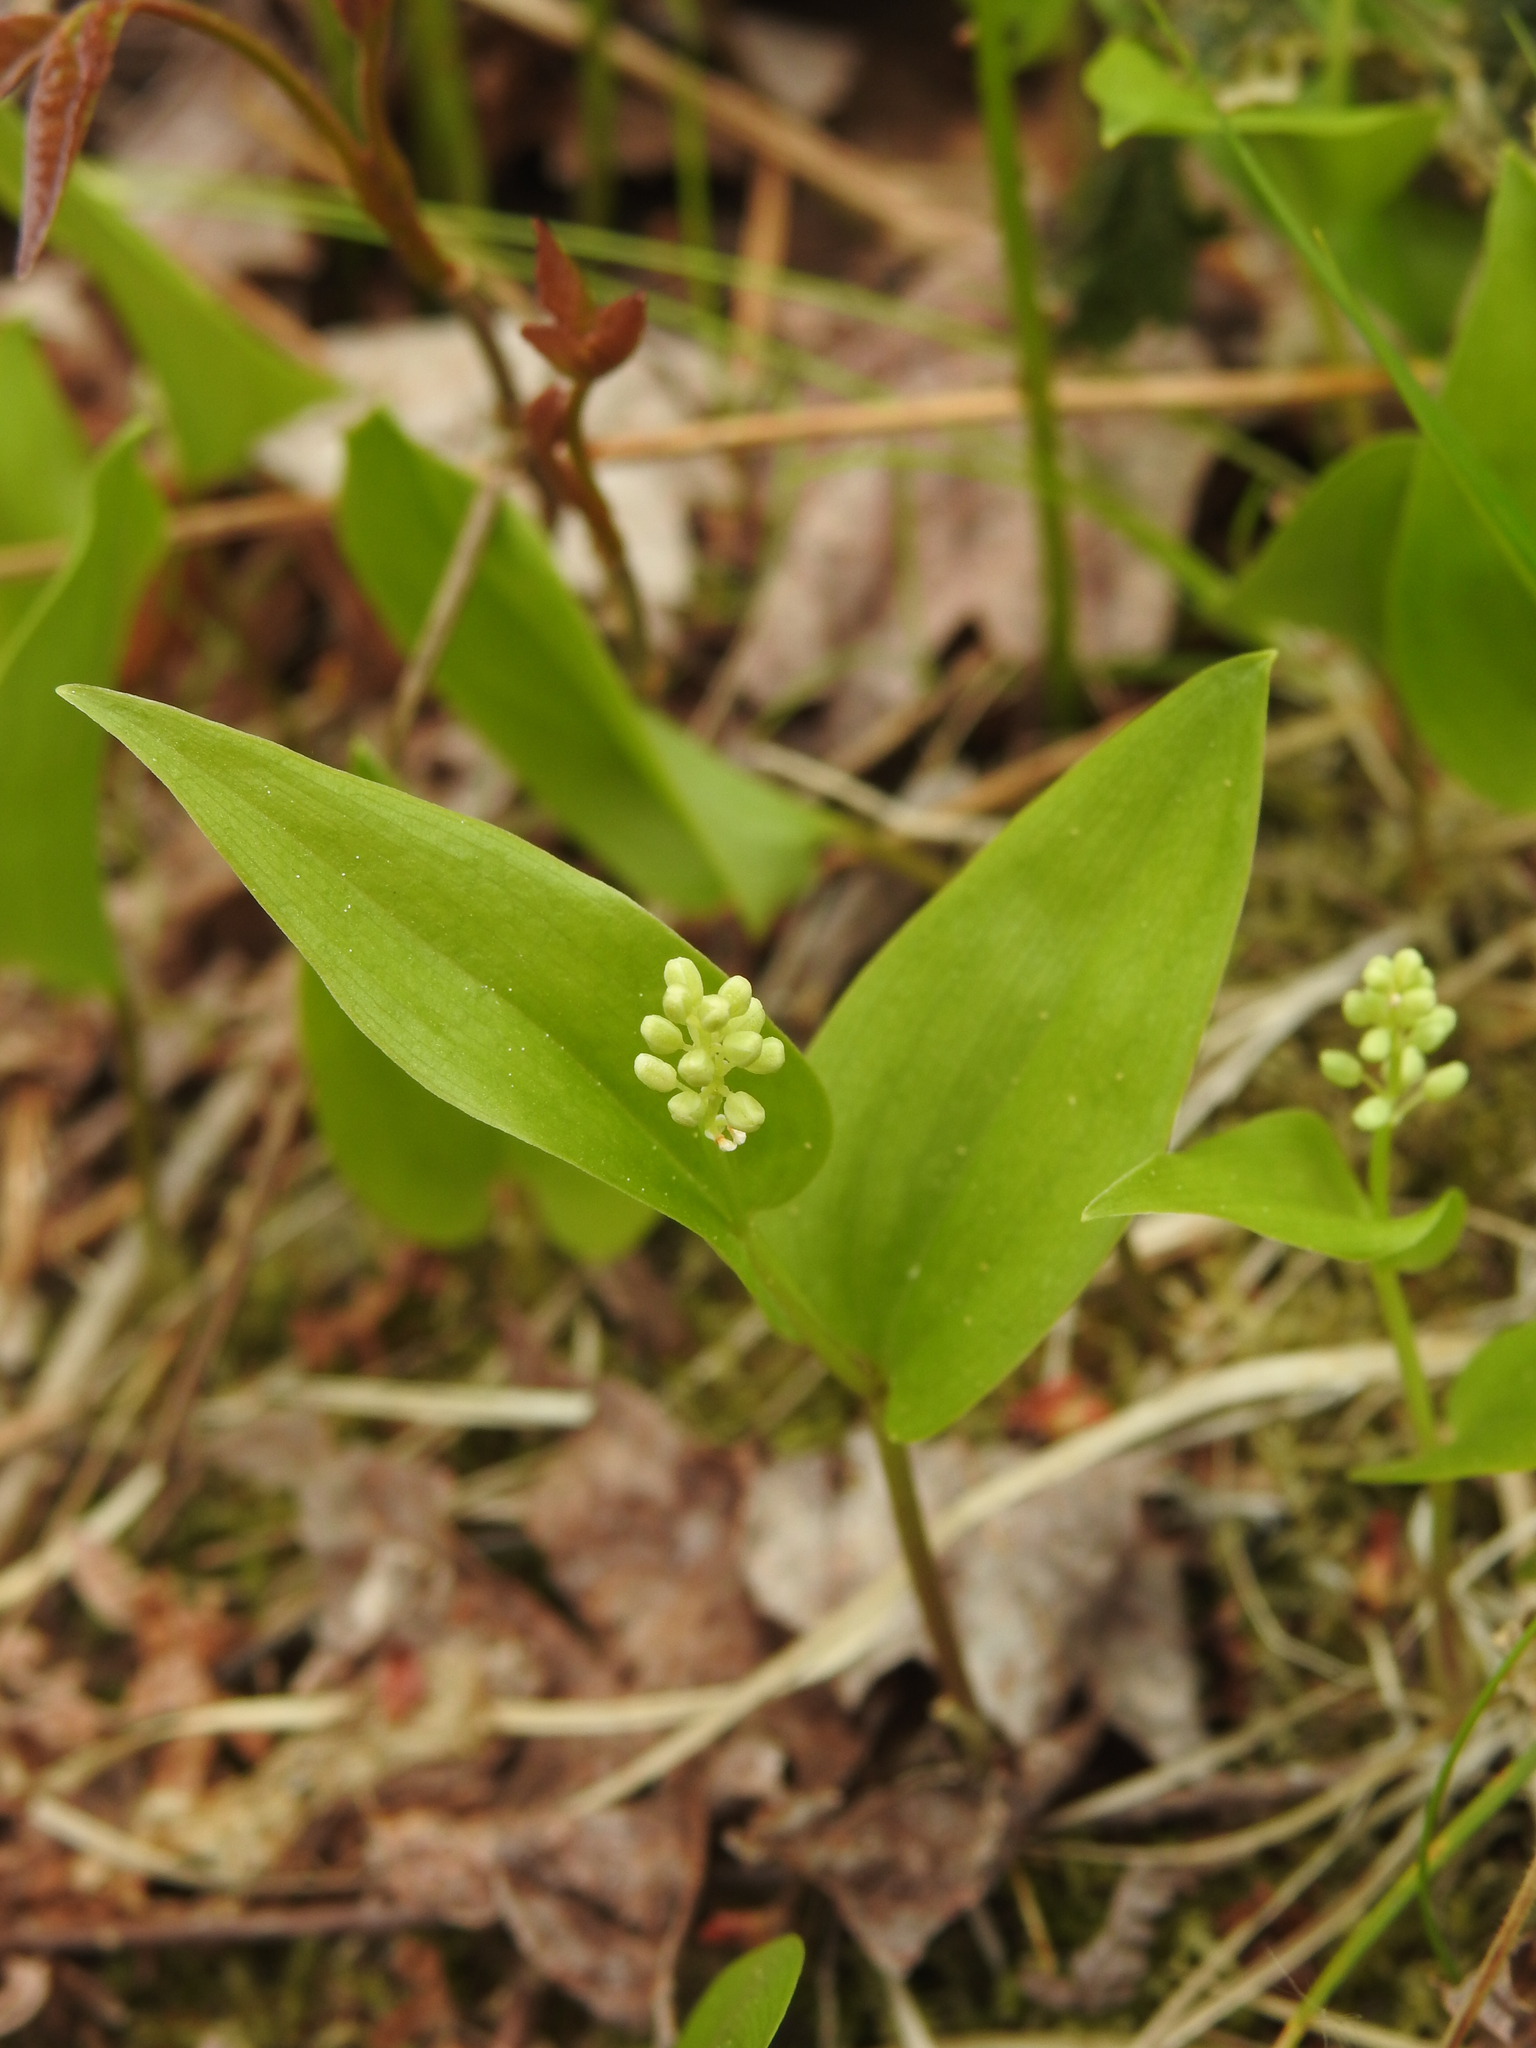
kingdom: Plantae
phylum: Tracheophyta
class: Liliopsida
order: Asparagales
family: Asparagaceae
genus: Maianthemum
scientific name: Maianthemum canadense
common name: False lily-of-the-valley
